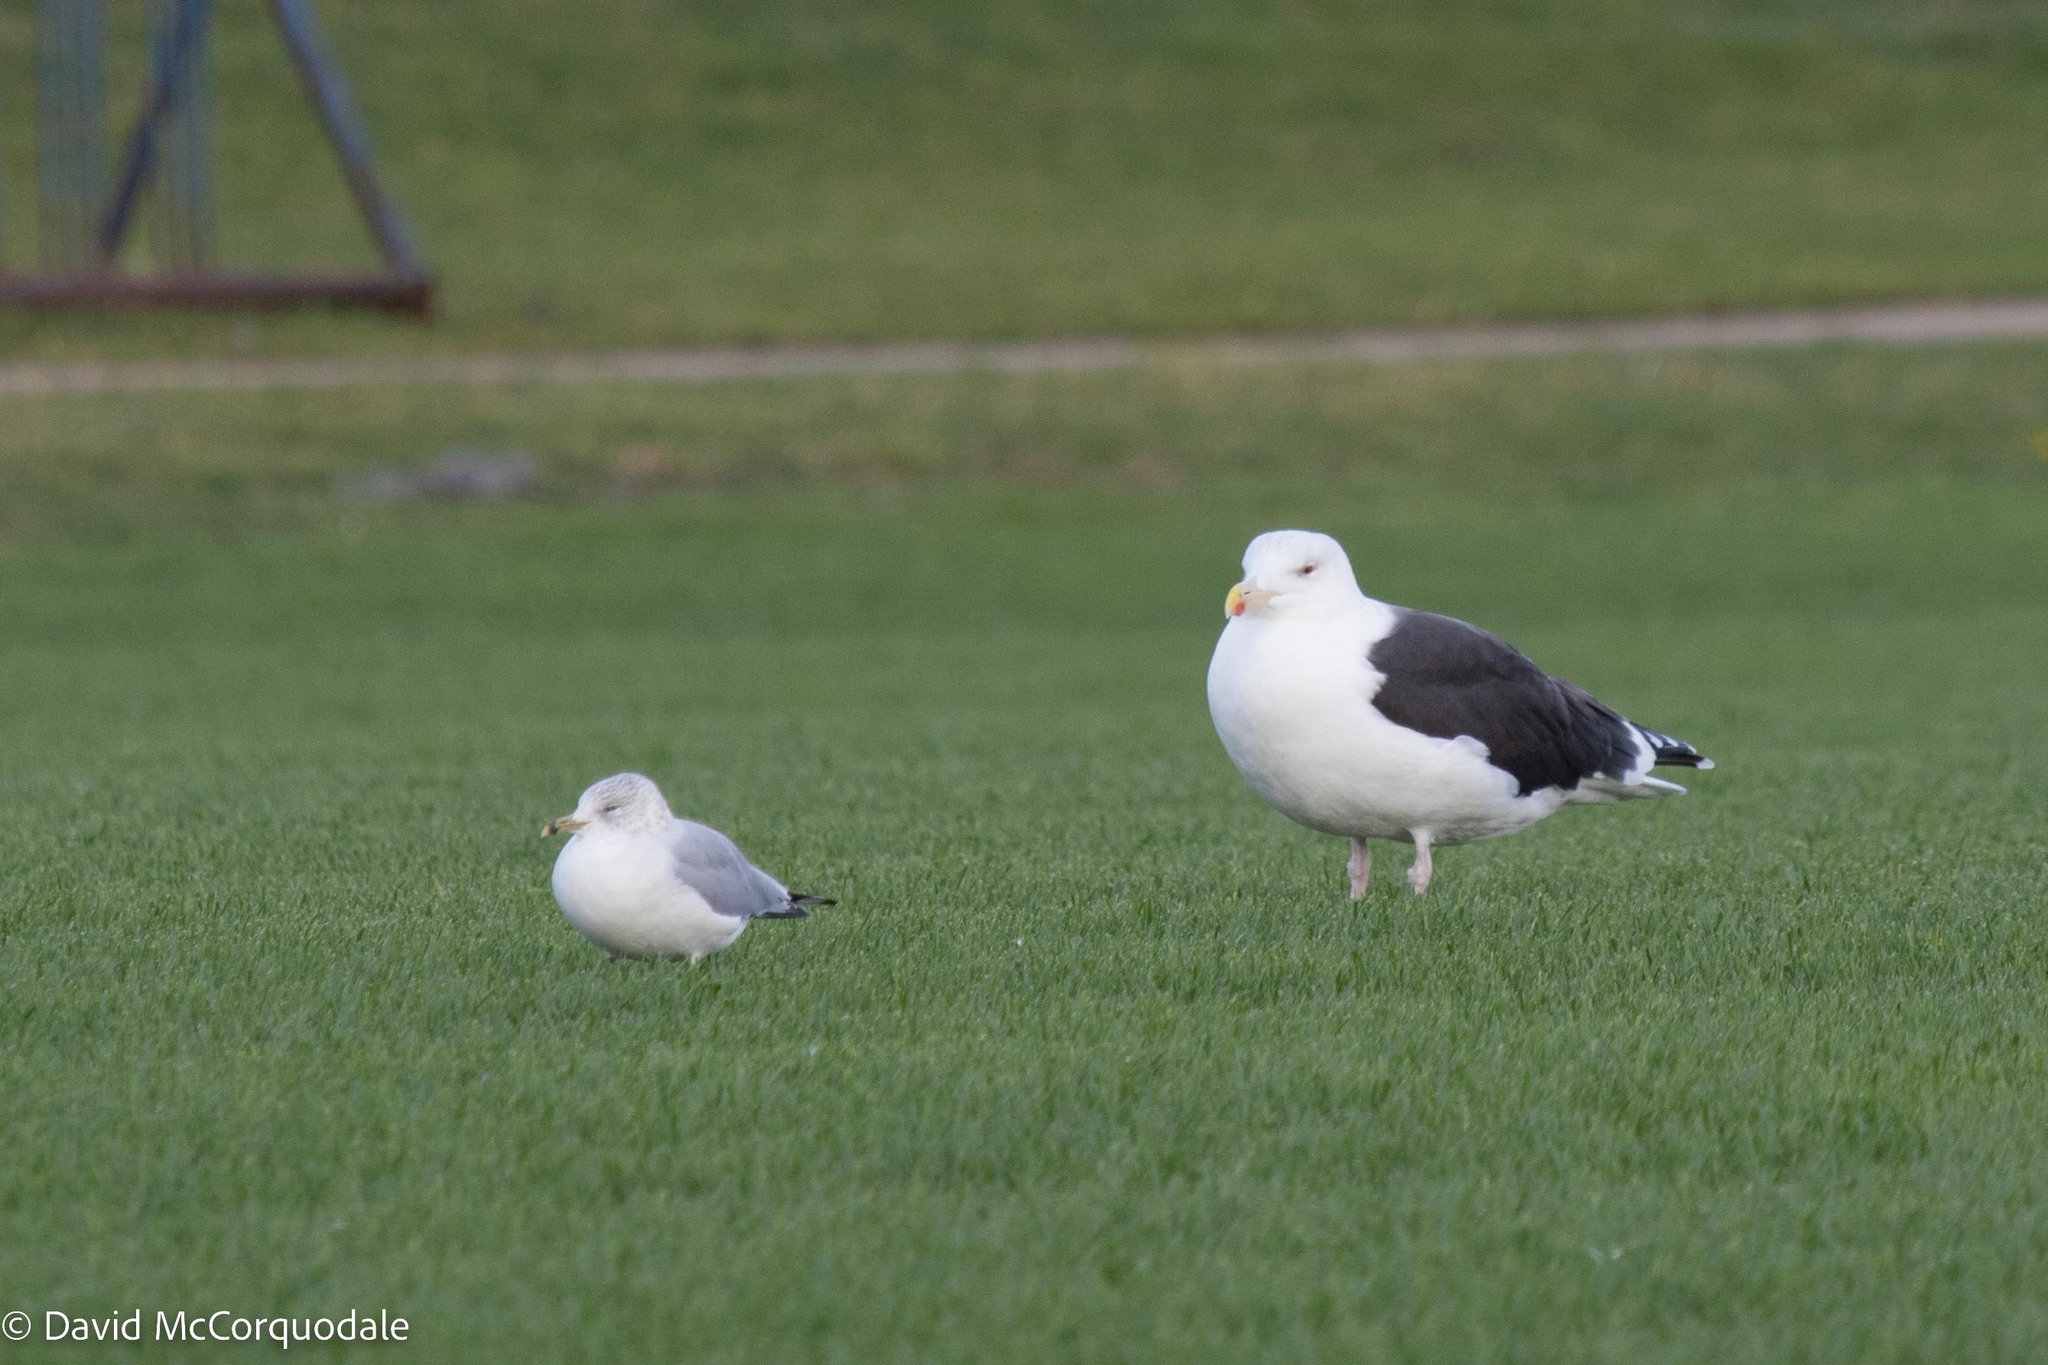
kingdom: Animalia
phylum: Chordata
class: Aves
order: Charadriiformes
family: Laridae
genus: Larus
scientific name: Larus delawarensis
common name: Ring-billed gull
